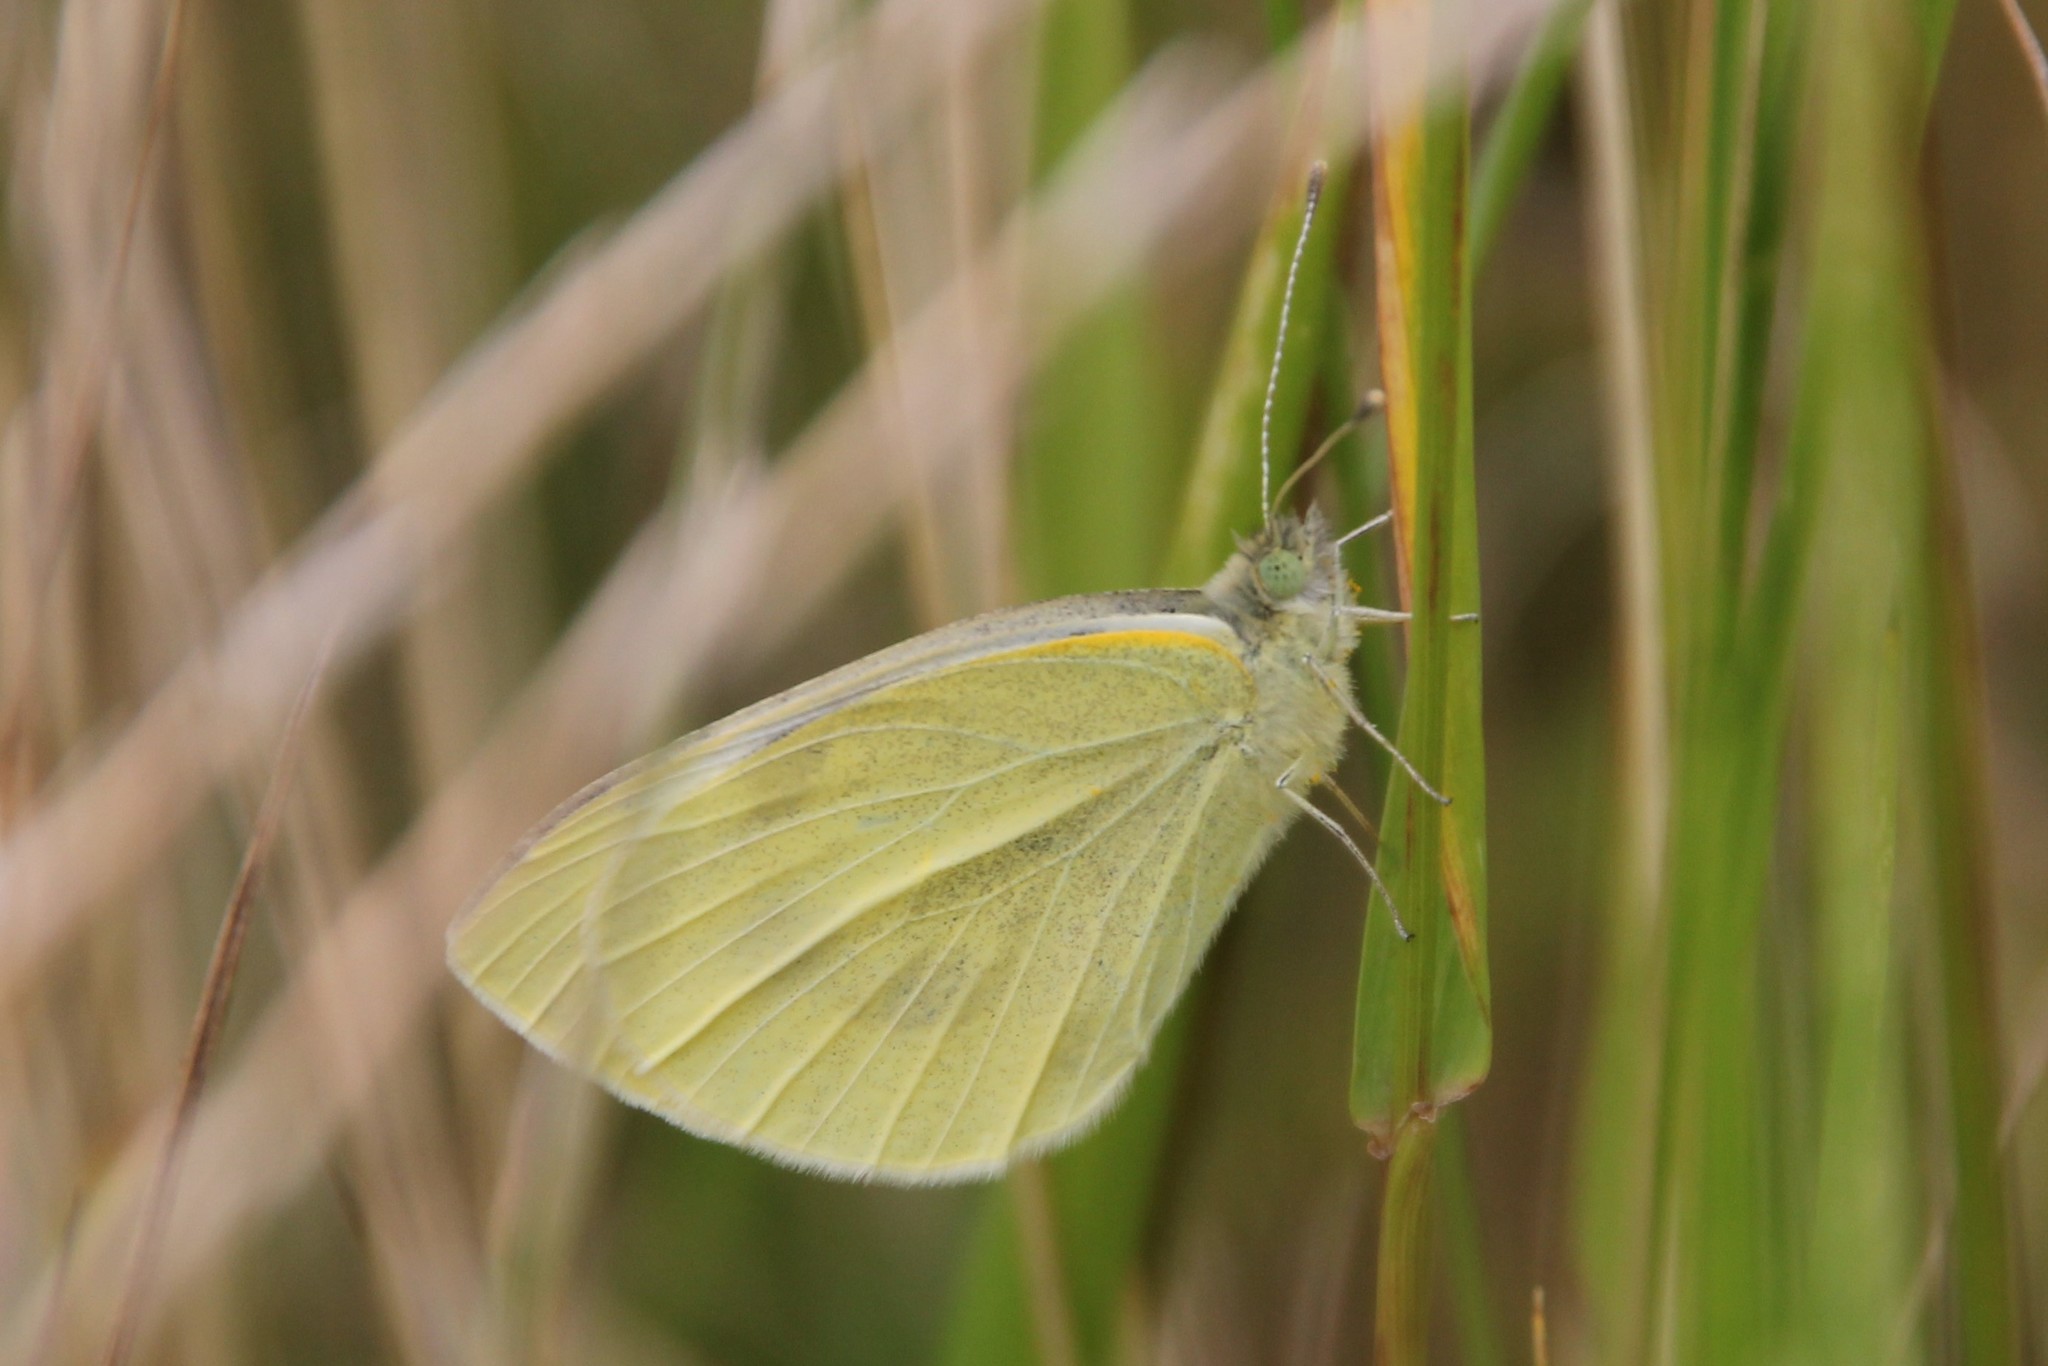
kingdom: Animalia
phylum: Arthropoda
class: Insecta
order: Lepidoptera
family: Pieridae
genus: Pieris
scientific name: Pieris rapae
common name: Small white
